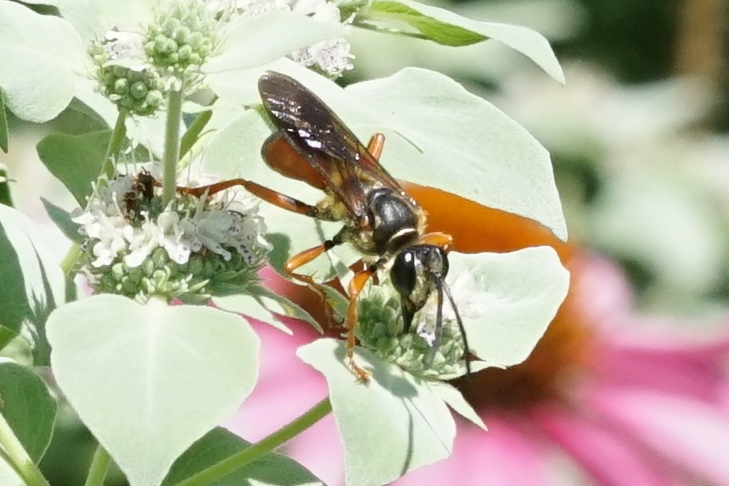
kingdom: Animalia
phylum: Arthropoda
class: Insecta
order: Hymenoptera
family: Sphecidae
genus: Sphex
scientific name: Sphex ichneumoneus
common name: Great golden digger wasp
